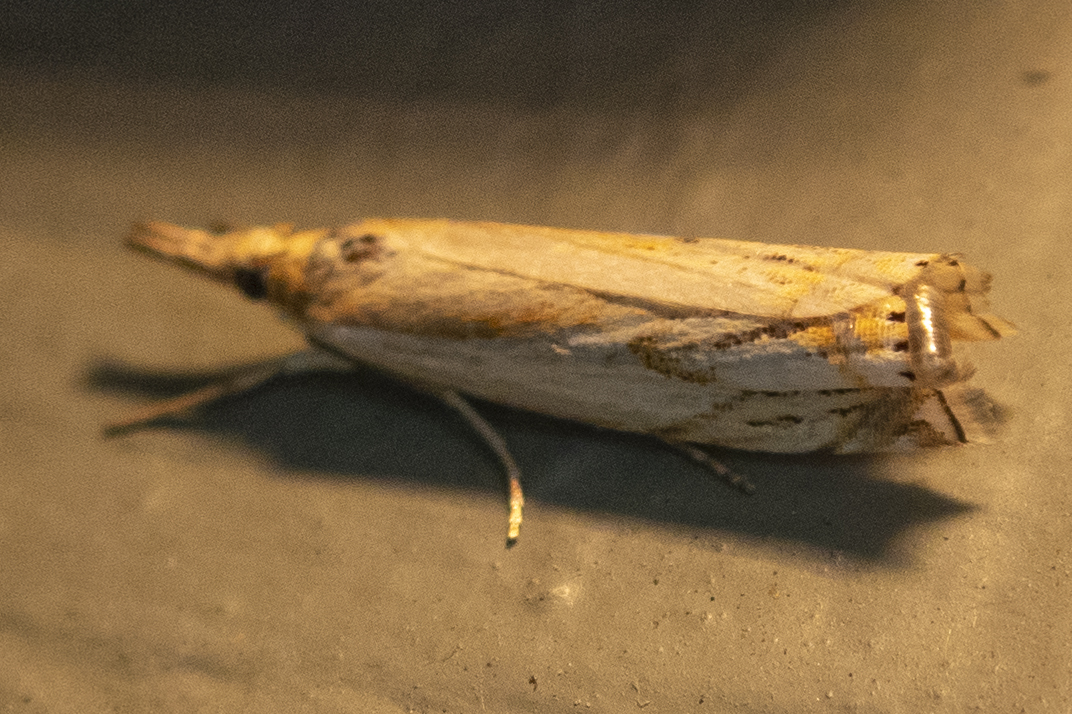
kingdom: Animalia
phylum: Arthropoda
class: Insecta
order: Lepidoptera
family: Crambidae
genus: Crambus
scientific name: Crambus agitatellus
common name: Double-banded grass-veneer
